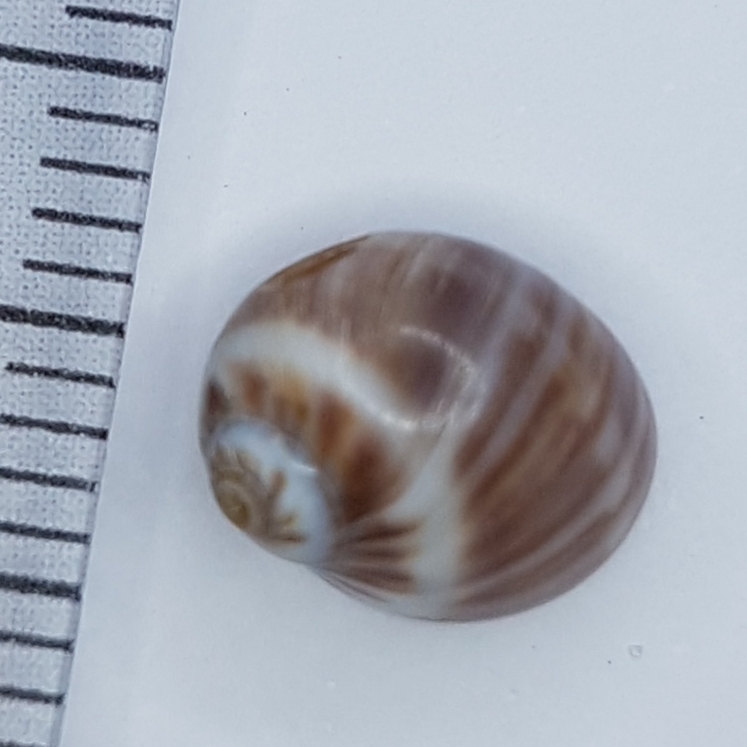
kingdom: Animalia
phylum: Mollusca
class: Gastropoda
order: Littorinimorpha
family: Naticidae
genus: Euspira
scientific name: Euspira macilenta
